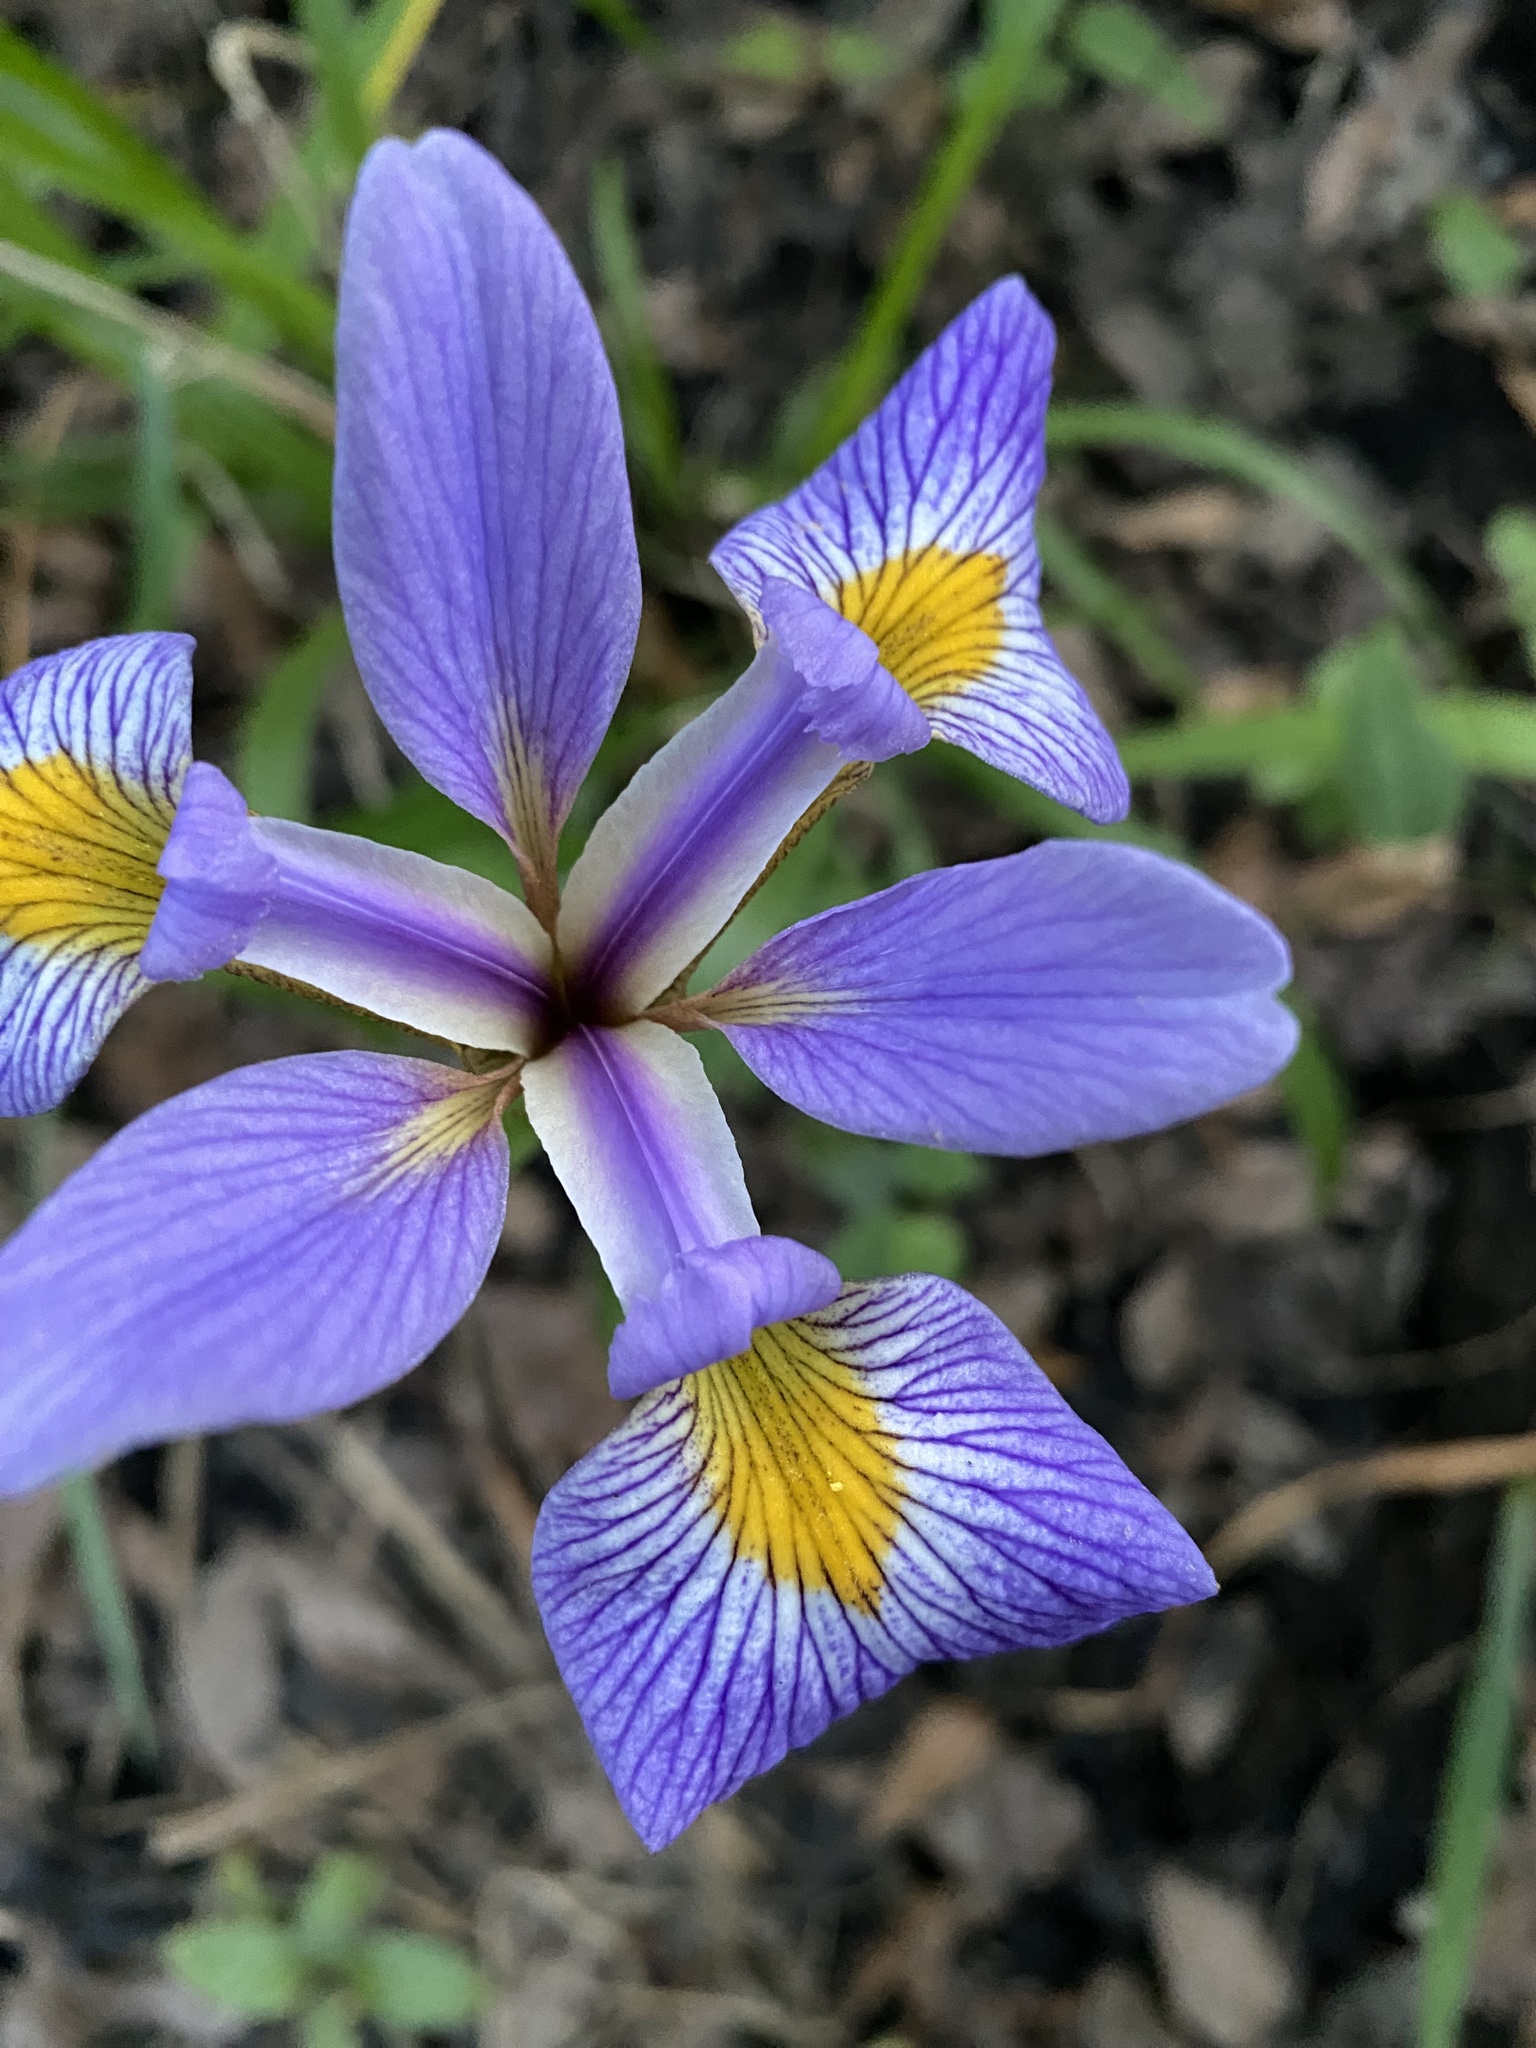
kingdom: Plantae
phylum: Tracheophyta
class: Liliopsida
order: Asparagales
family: Iridaceae
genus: Iris
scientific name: Iris virginica
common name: Southern blue flag
